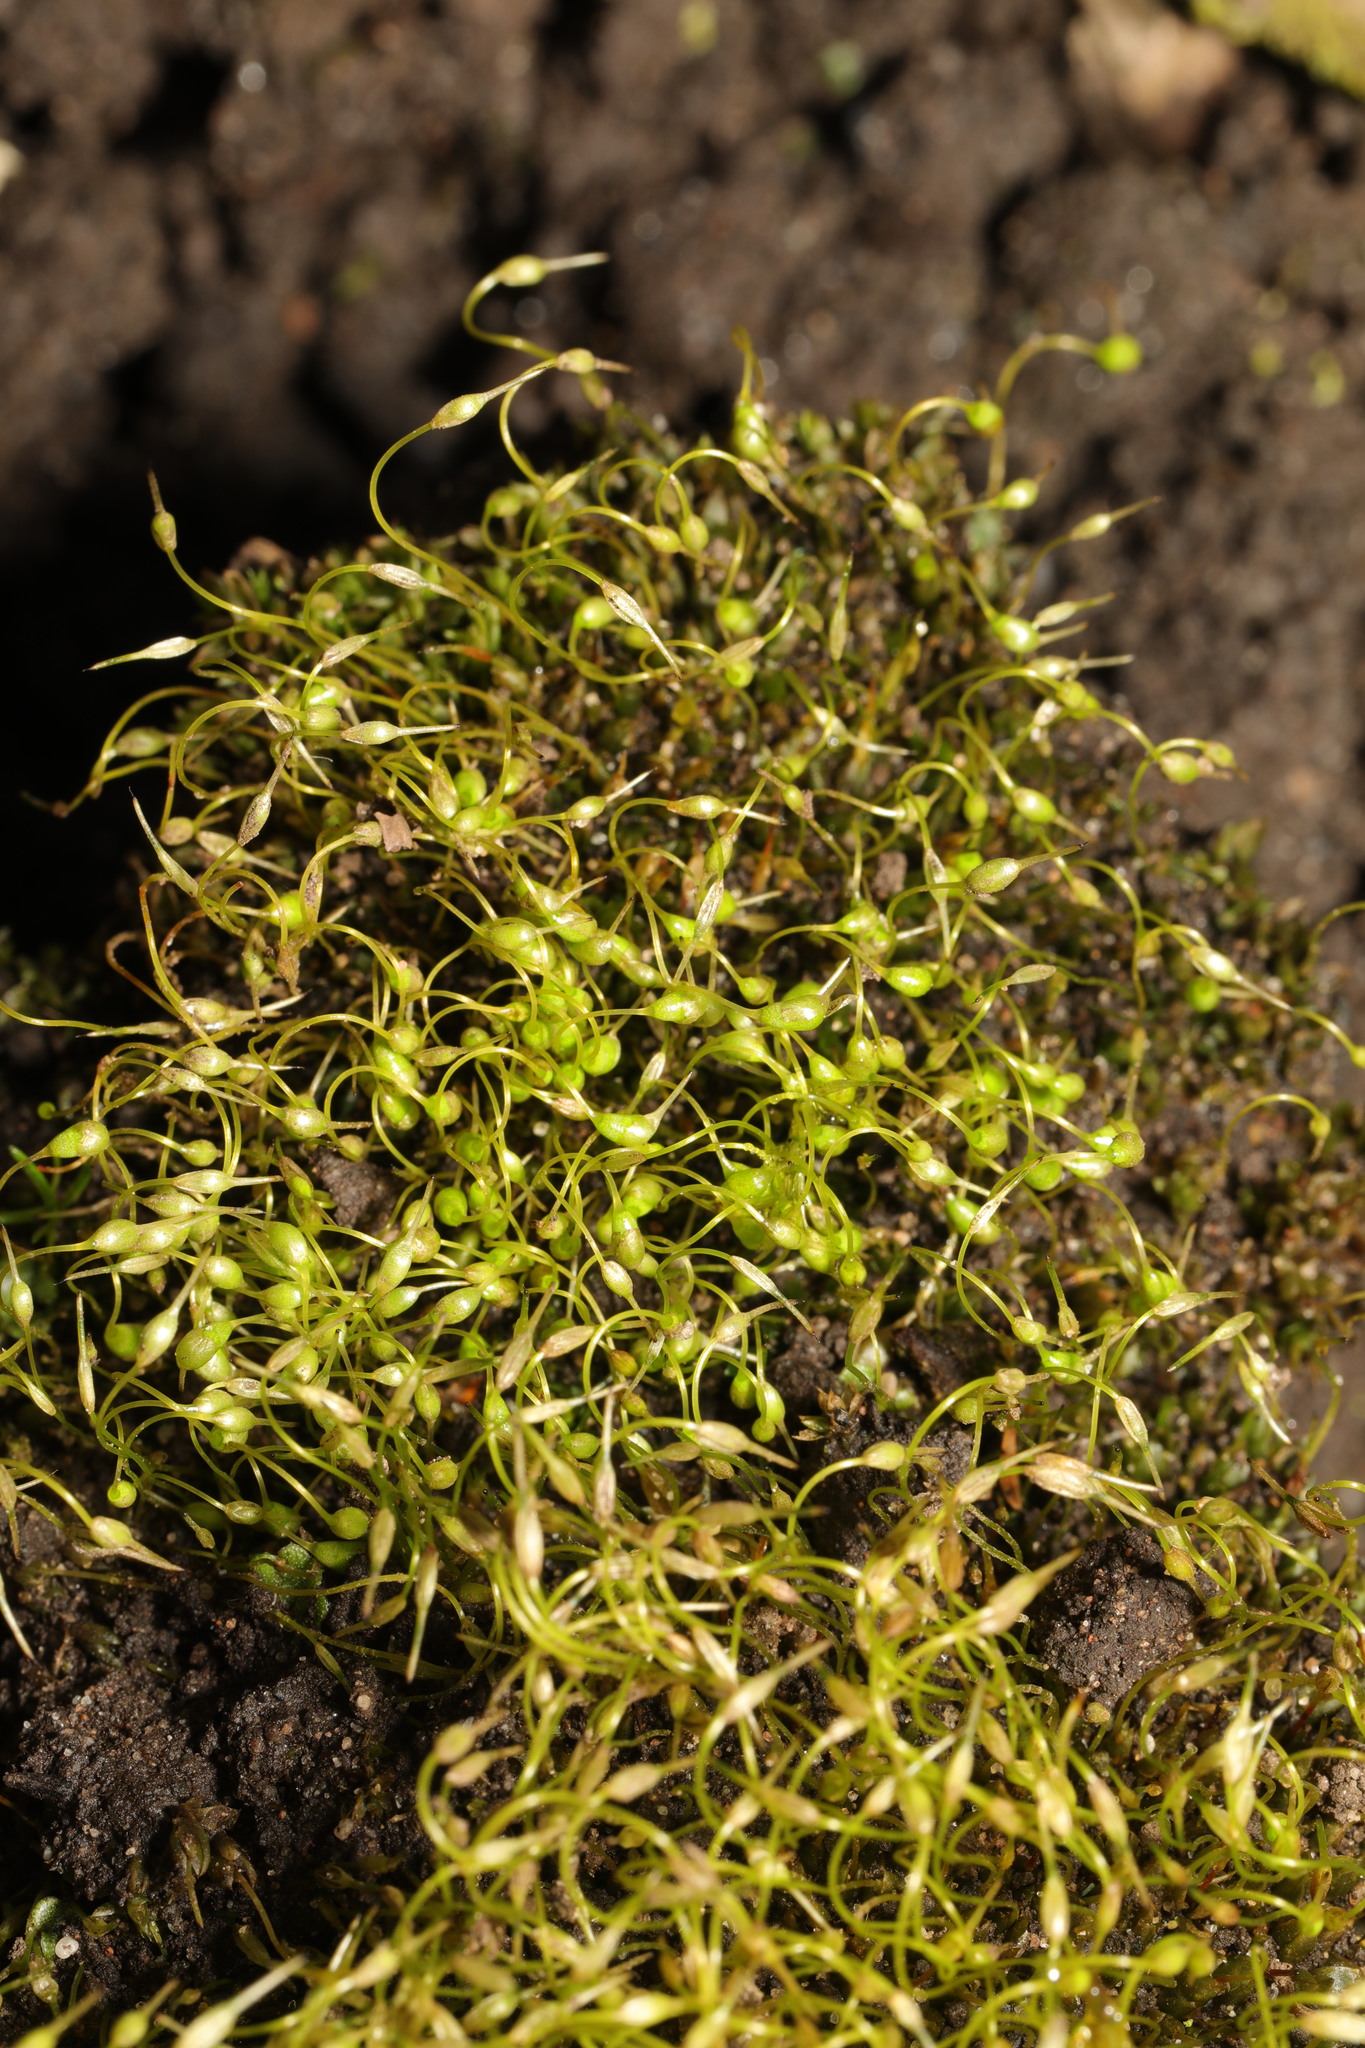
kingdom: Plantae
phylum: Bryophyta
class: Bryopsida
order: Funariales
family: Funariaceae
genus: Funaria
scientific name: Funaria hygrometrica
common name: Common cord moss
